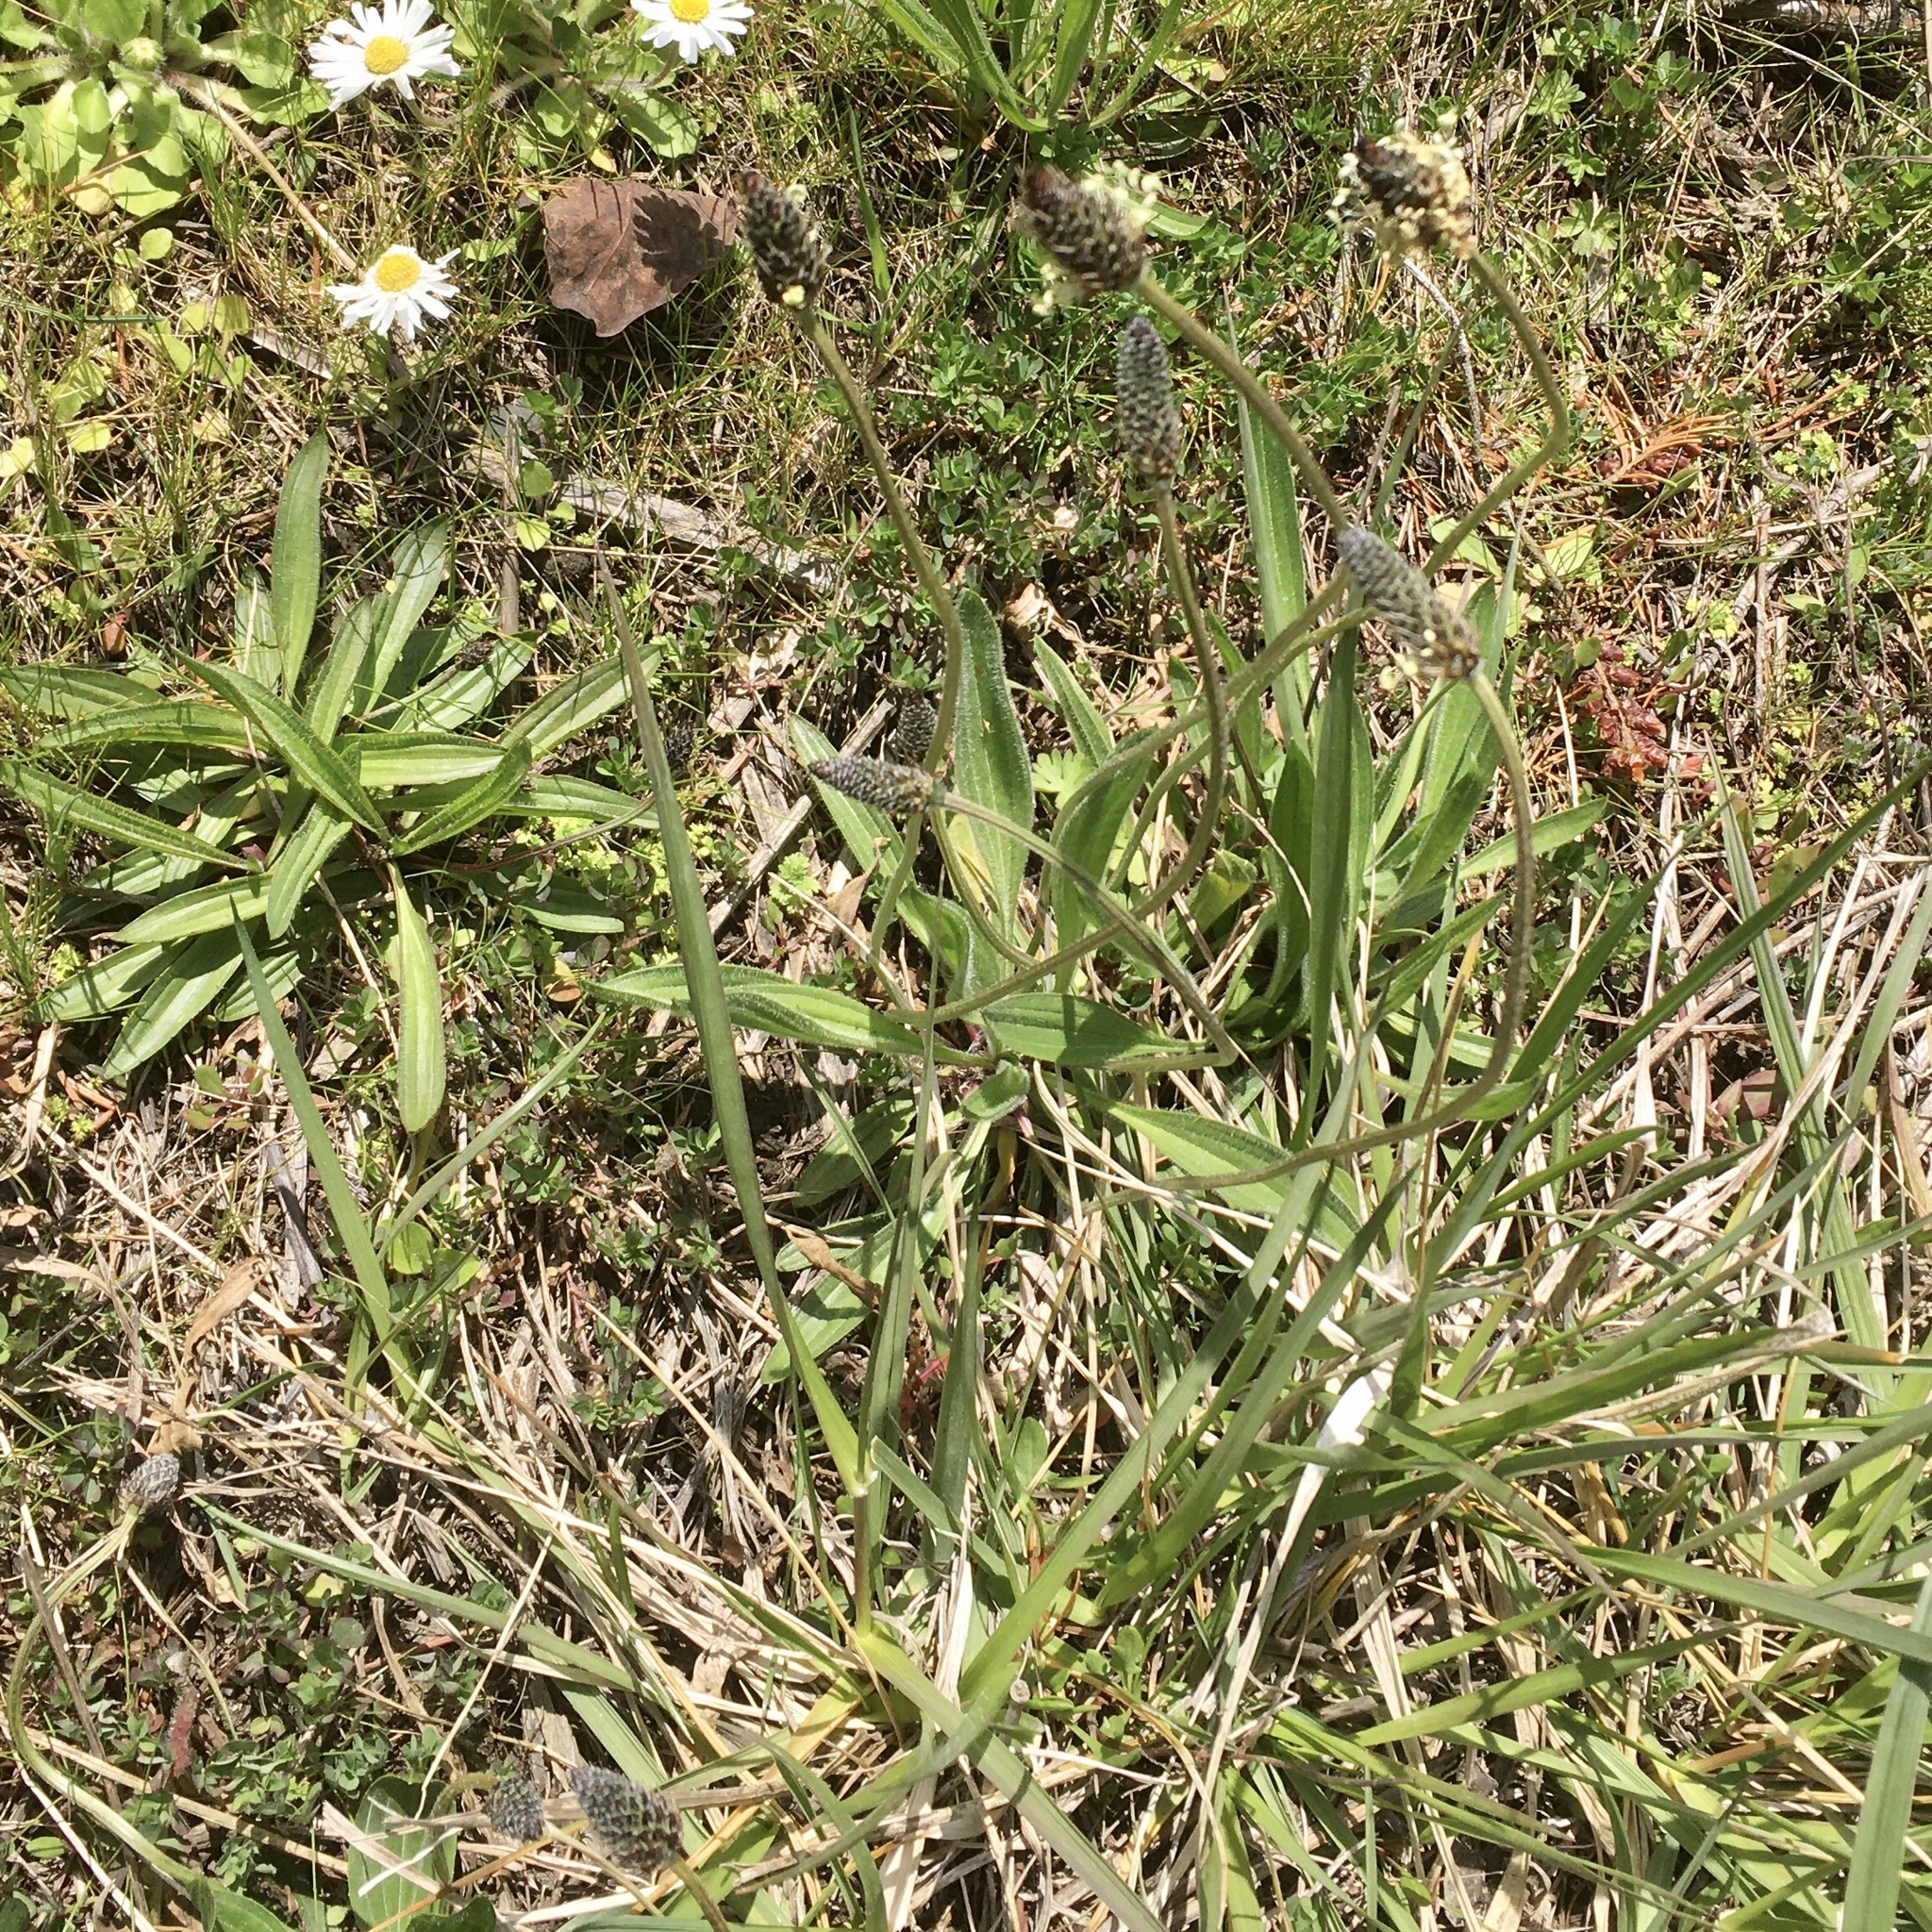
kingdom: Plantae
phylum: Tracheophyta
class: Magnoliopsida
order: Lamiales
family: Plantaginaceae
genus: Plantago
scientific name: Plantago lanceolata
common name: Ribwort plantain
